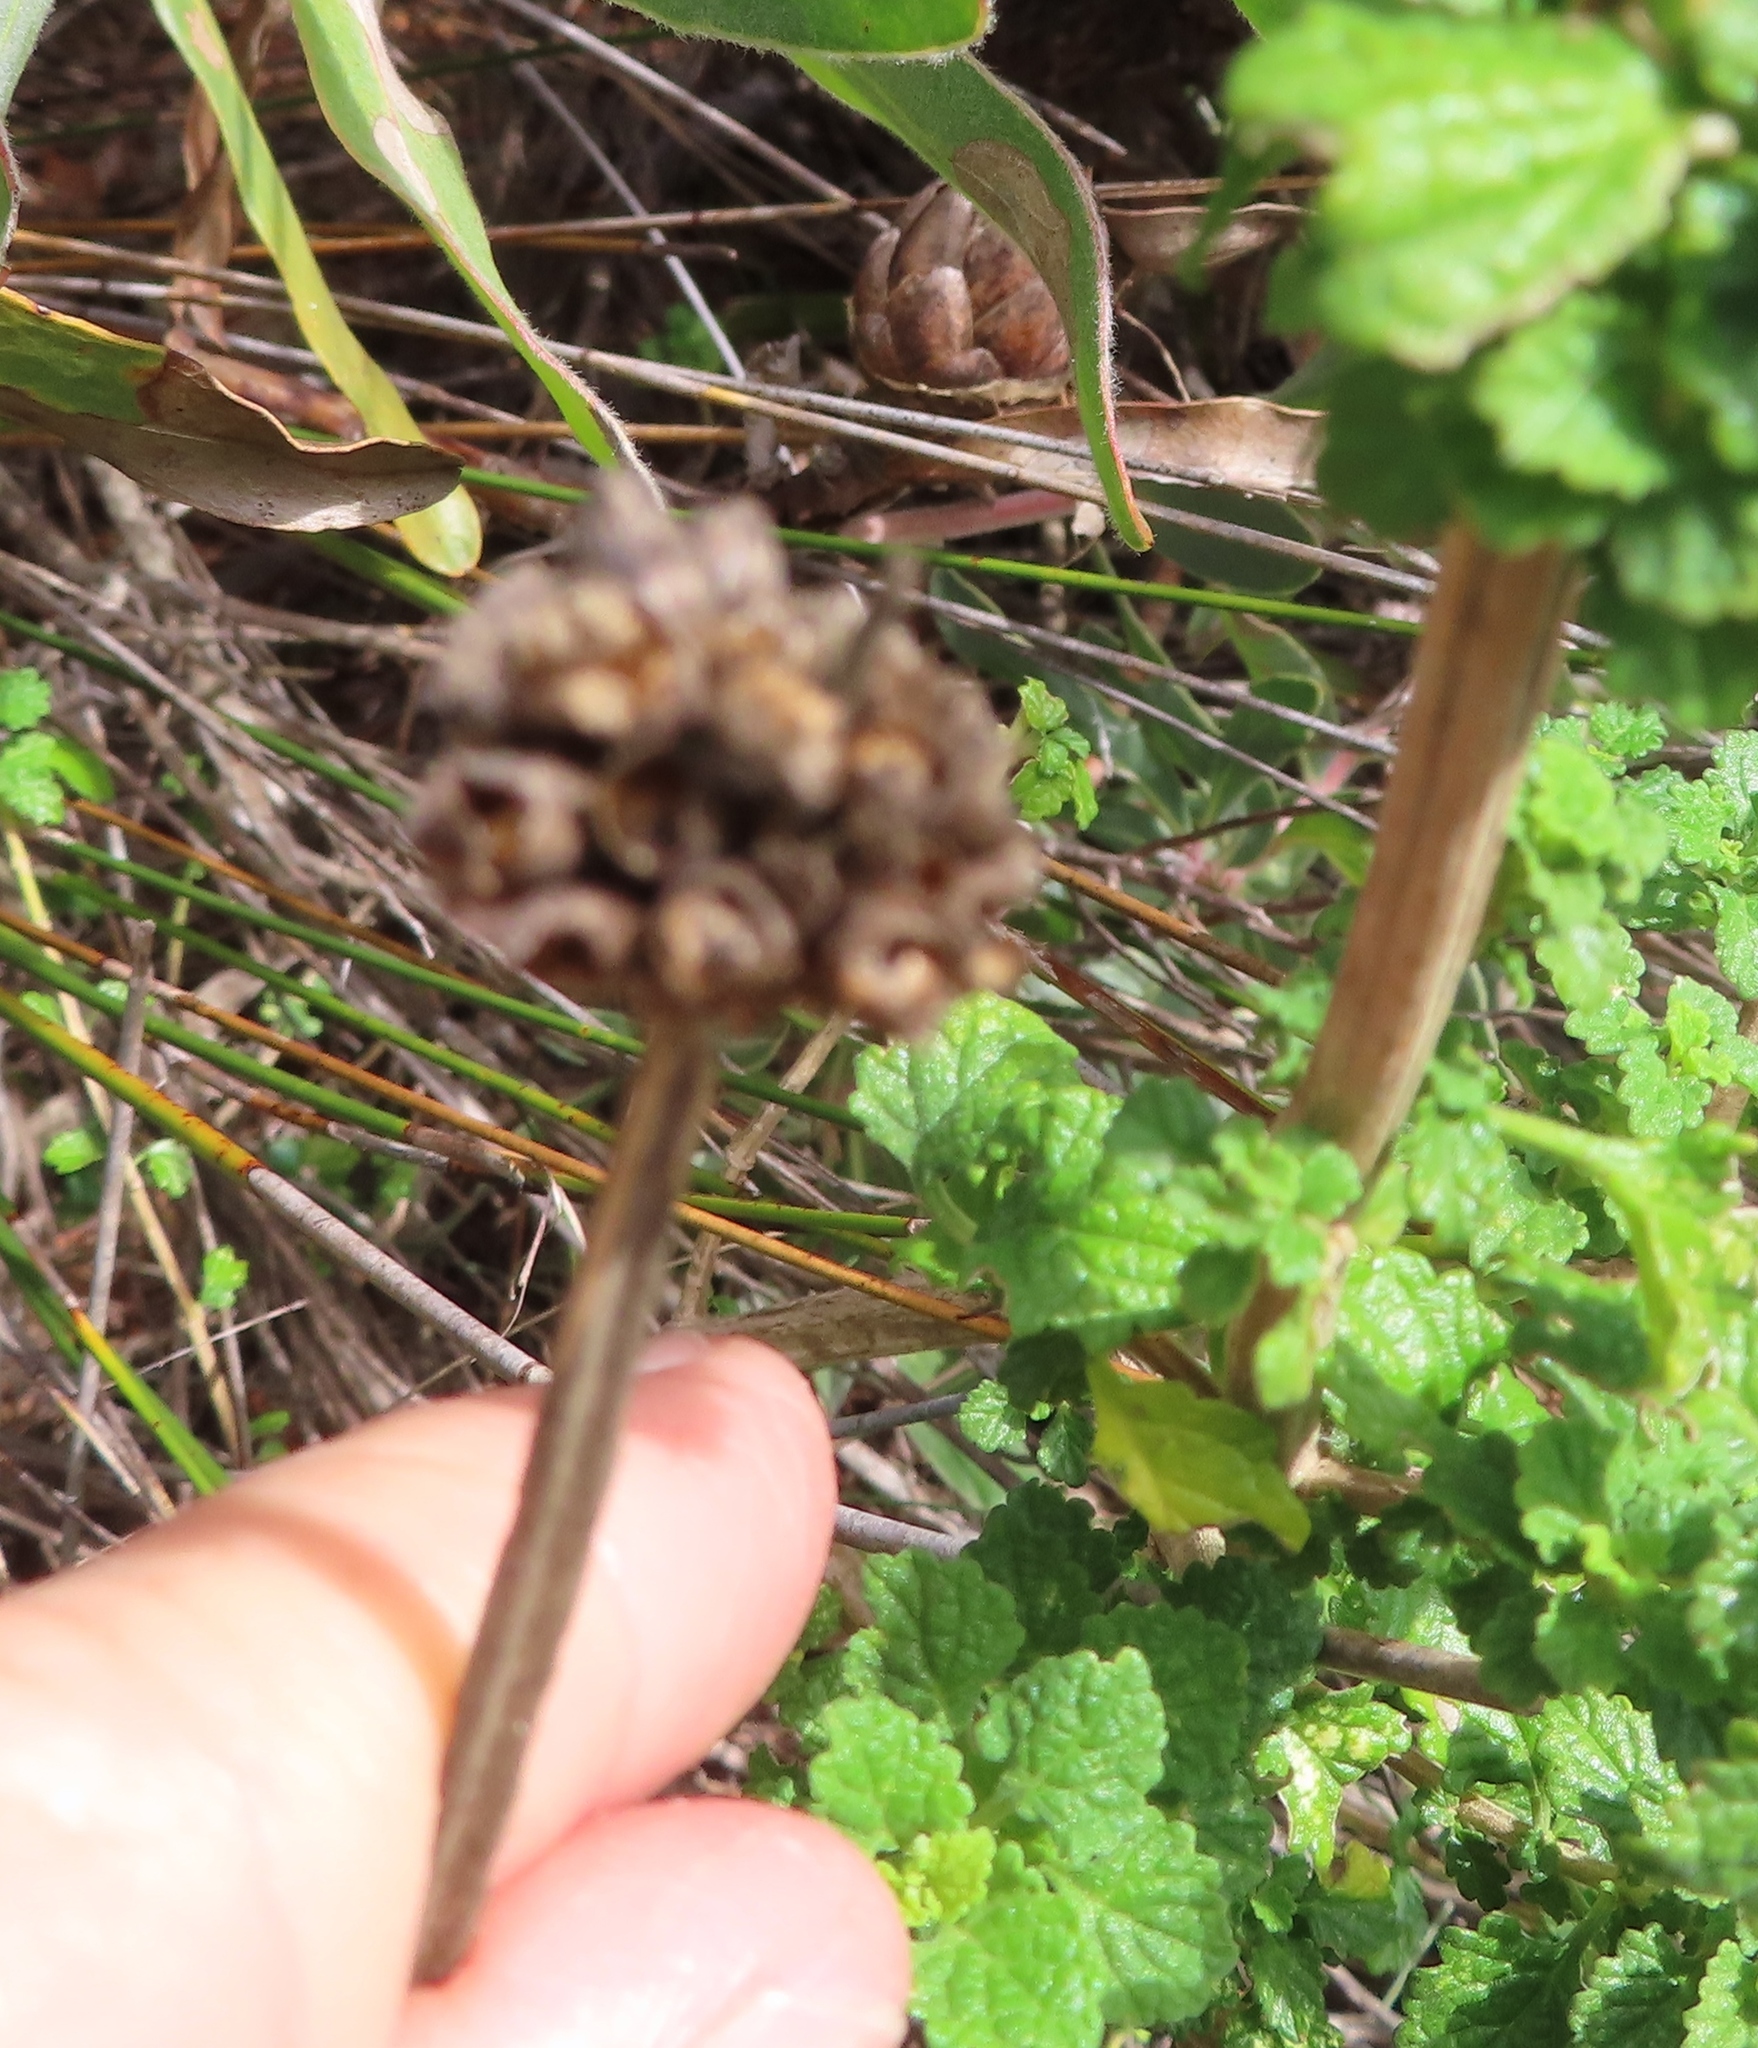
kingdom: Plantae
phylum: Tracheophyta
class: Magnoliopsida
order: Lamiales
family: Lamiaceae
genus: Leonotis
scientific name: Leonotis ocymifolia
